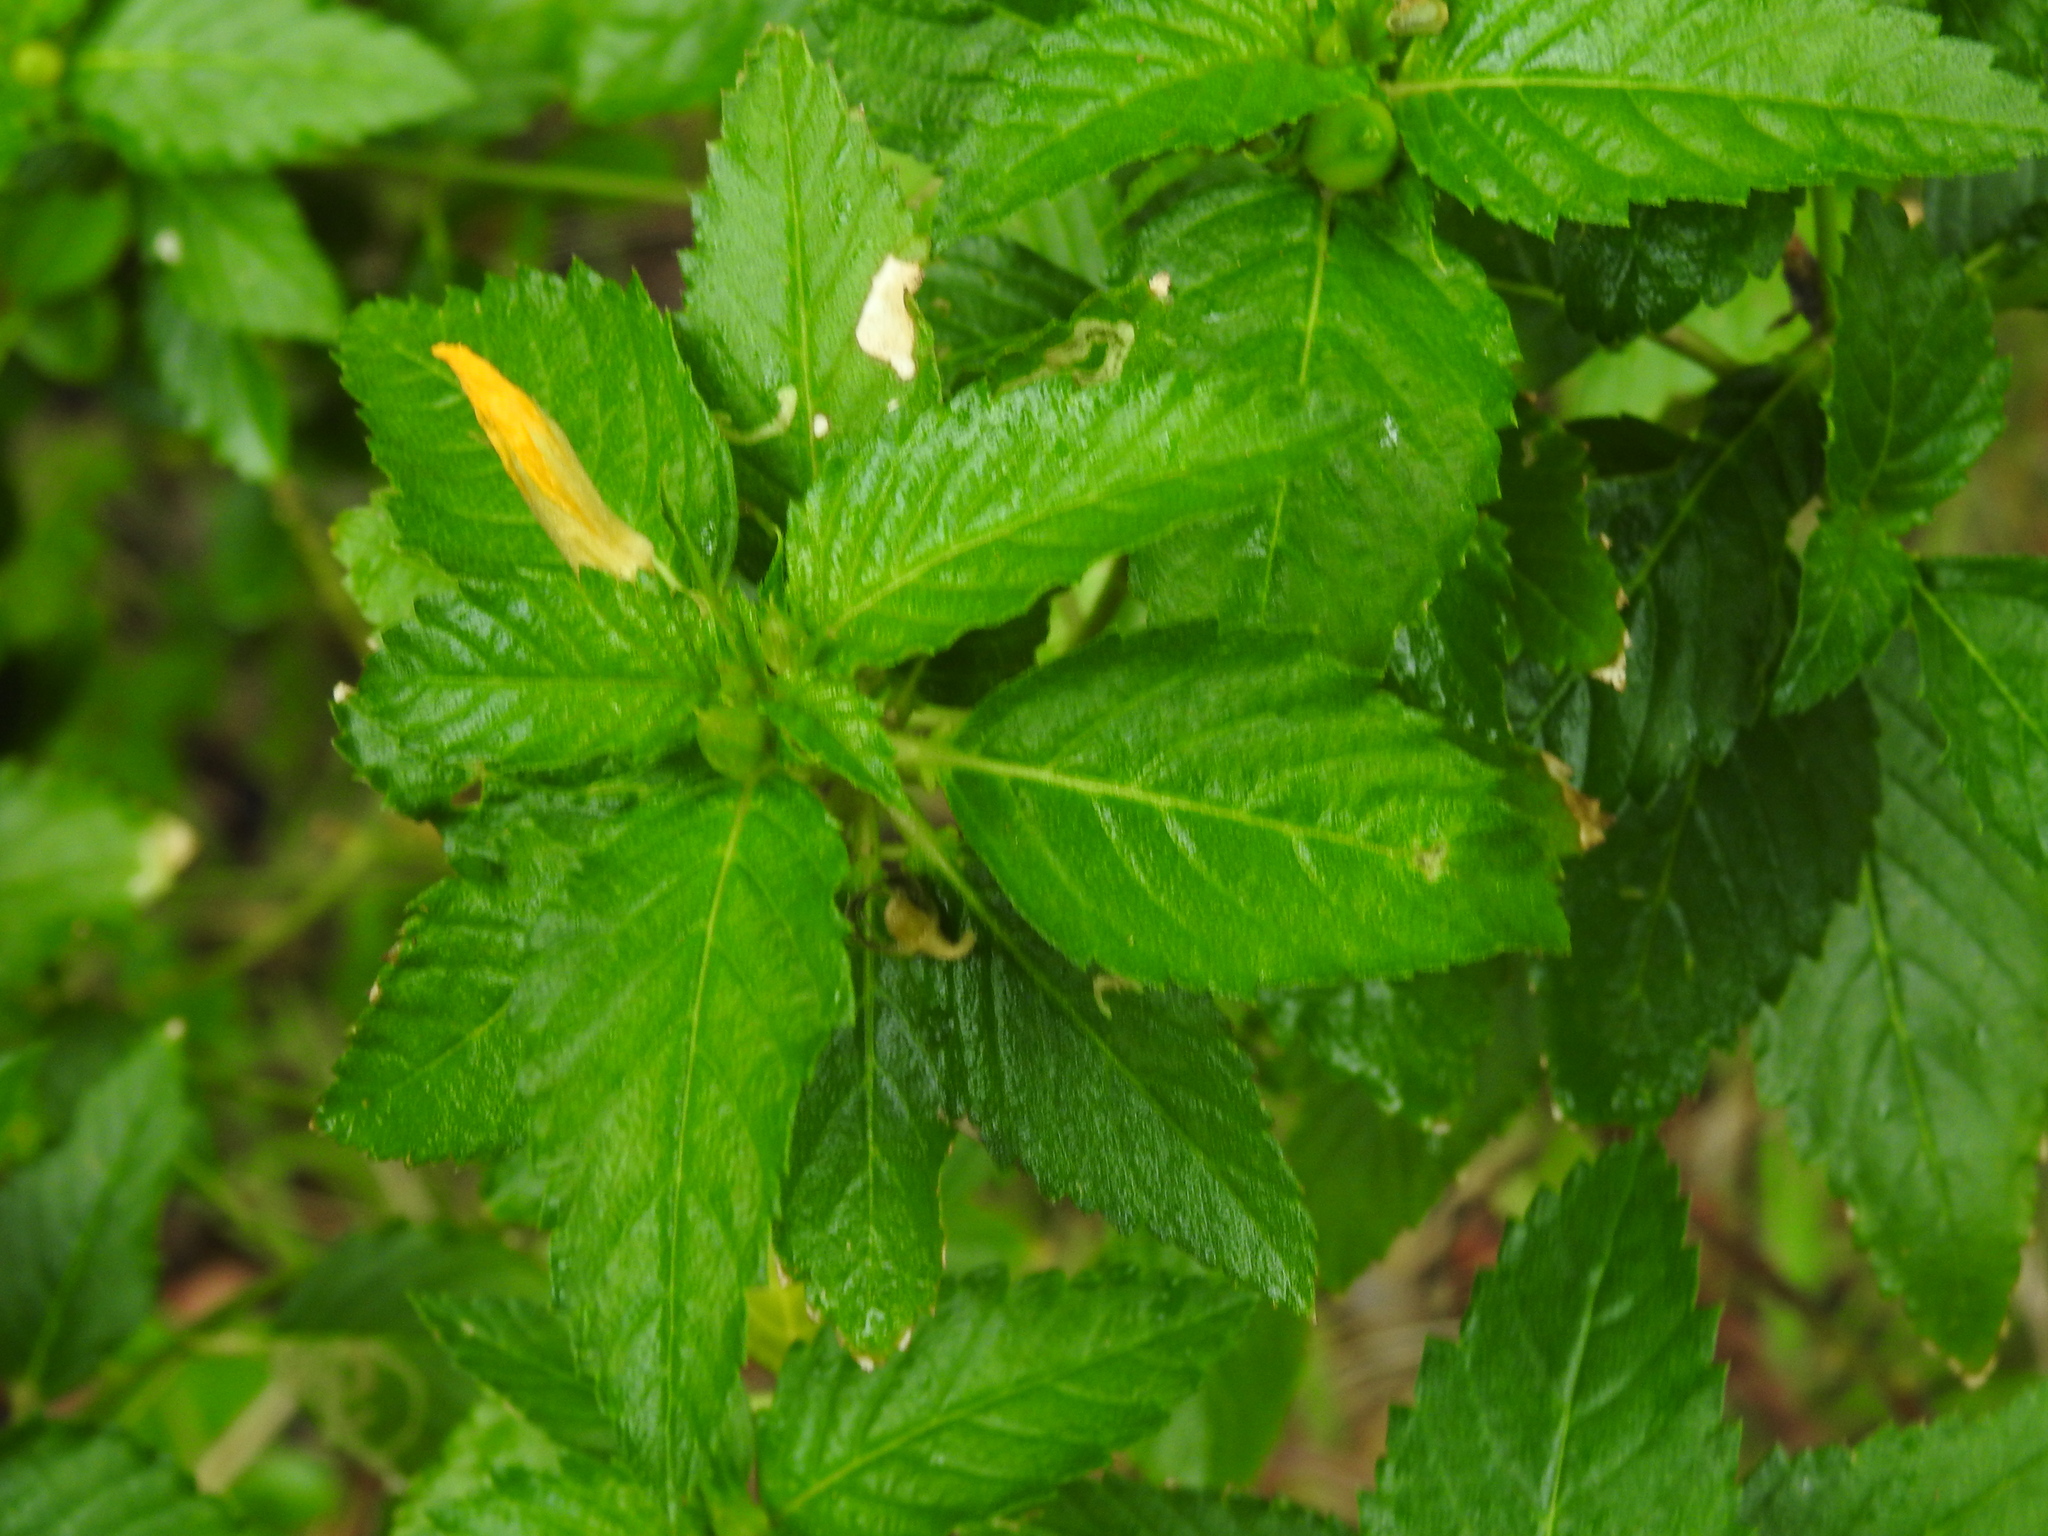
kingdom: Plantae
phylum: Tracheophyta
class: Magnoliopsida
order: Malpighiales
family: Turneraceae
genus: Turnera
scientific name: Turnera ulmifolia
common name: Ramgoat dashalong
